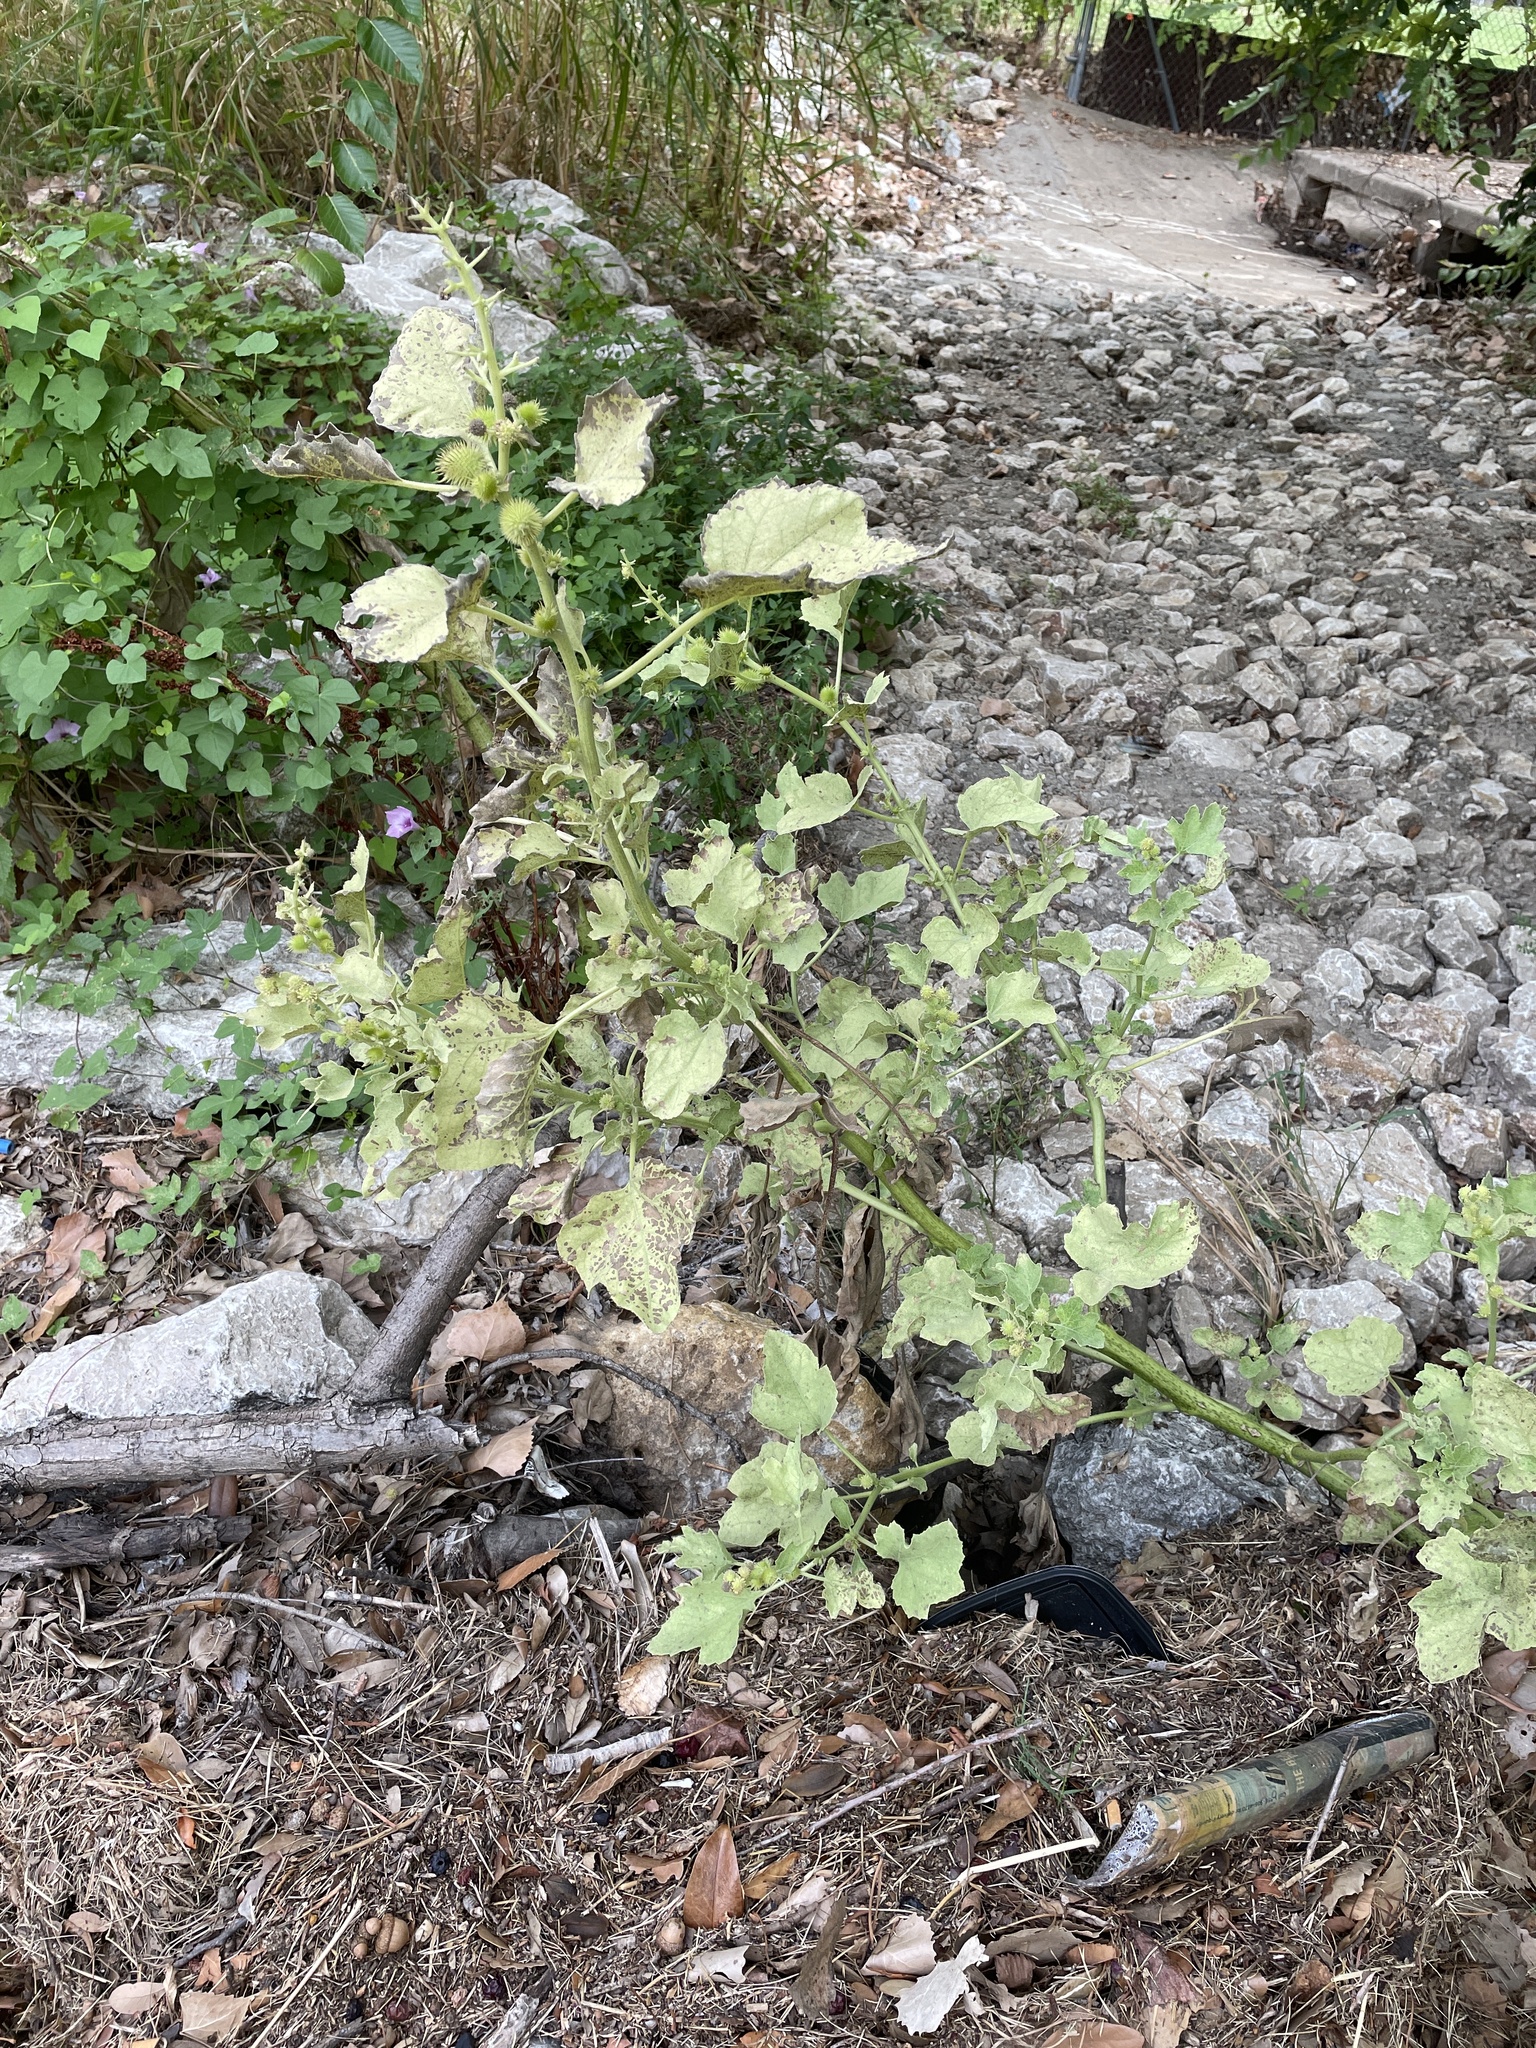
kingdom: Plantae
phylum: Tracheophyta
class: Magnoliopsida
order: Asterales
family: Asteraceae
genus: Xanthium
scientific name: Xanthium strumarium
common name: Rough cocklebur
